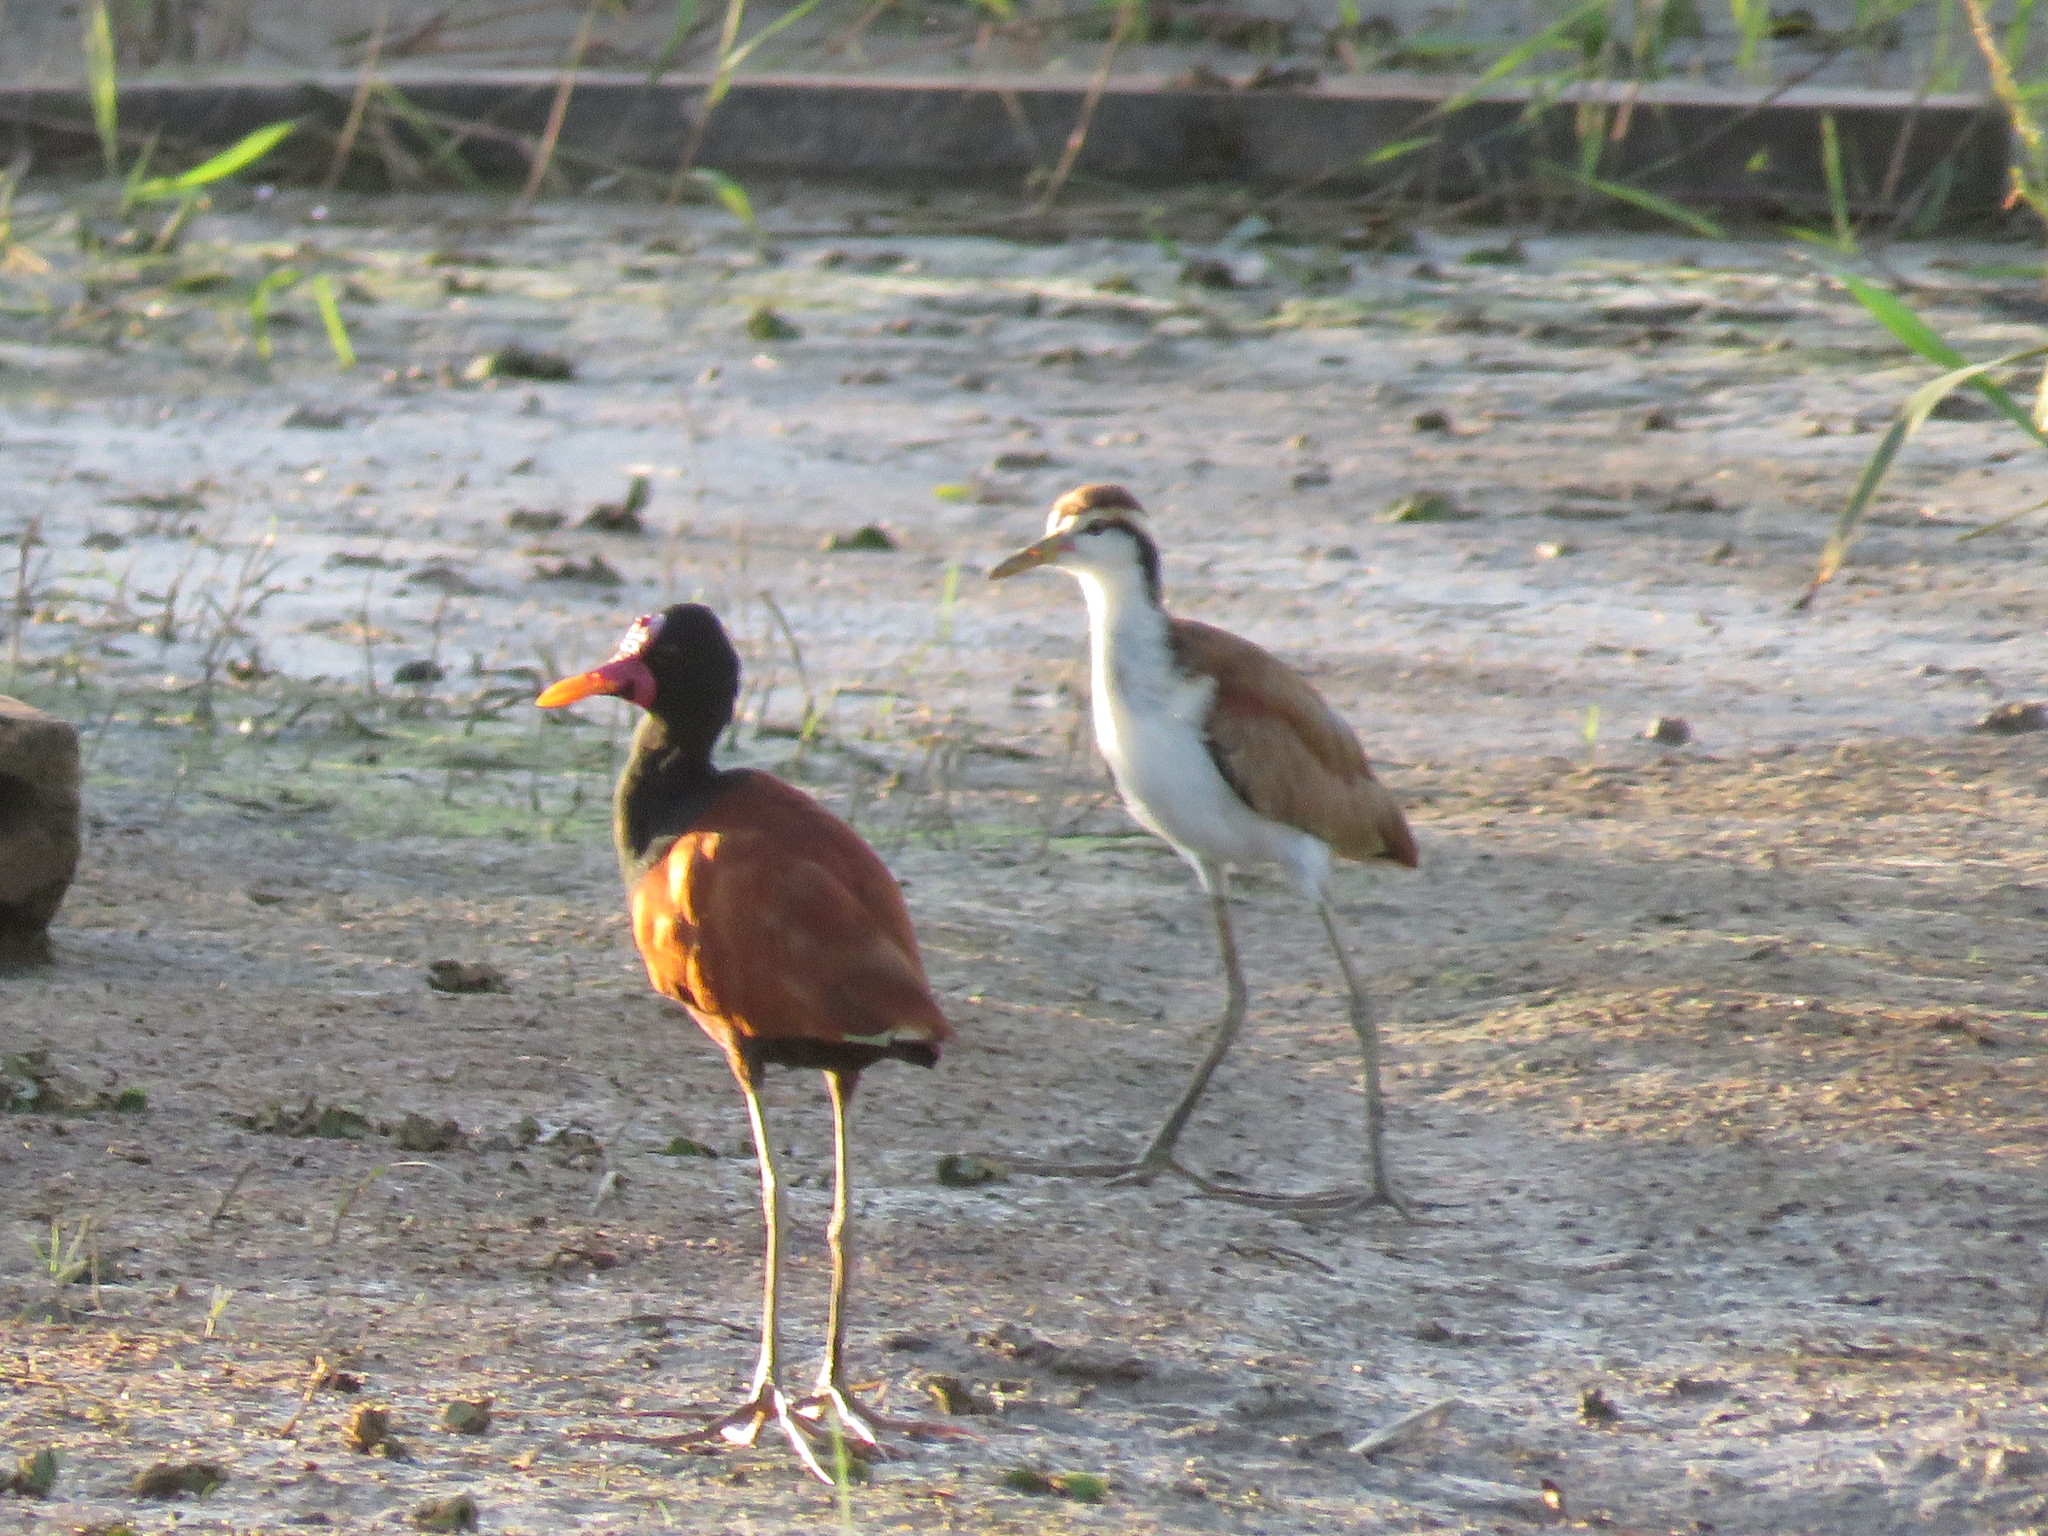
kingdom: Animalia
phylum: Chordata
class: Aves
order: Charadriiformes
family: Jacanidae
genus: Jacana
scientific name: Jacana jacana
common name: Wattled jacana
